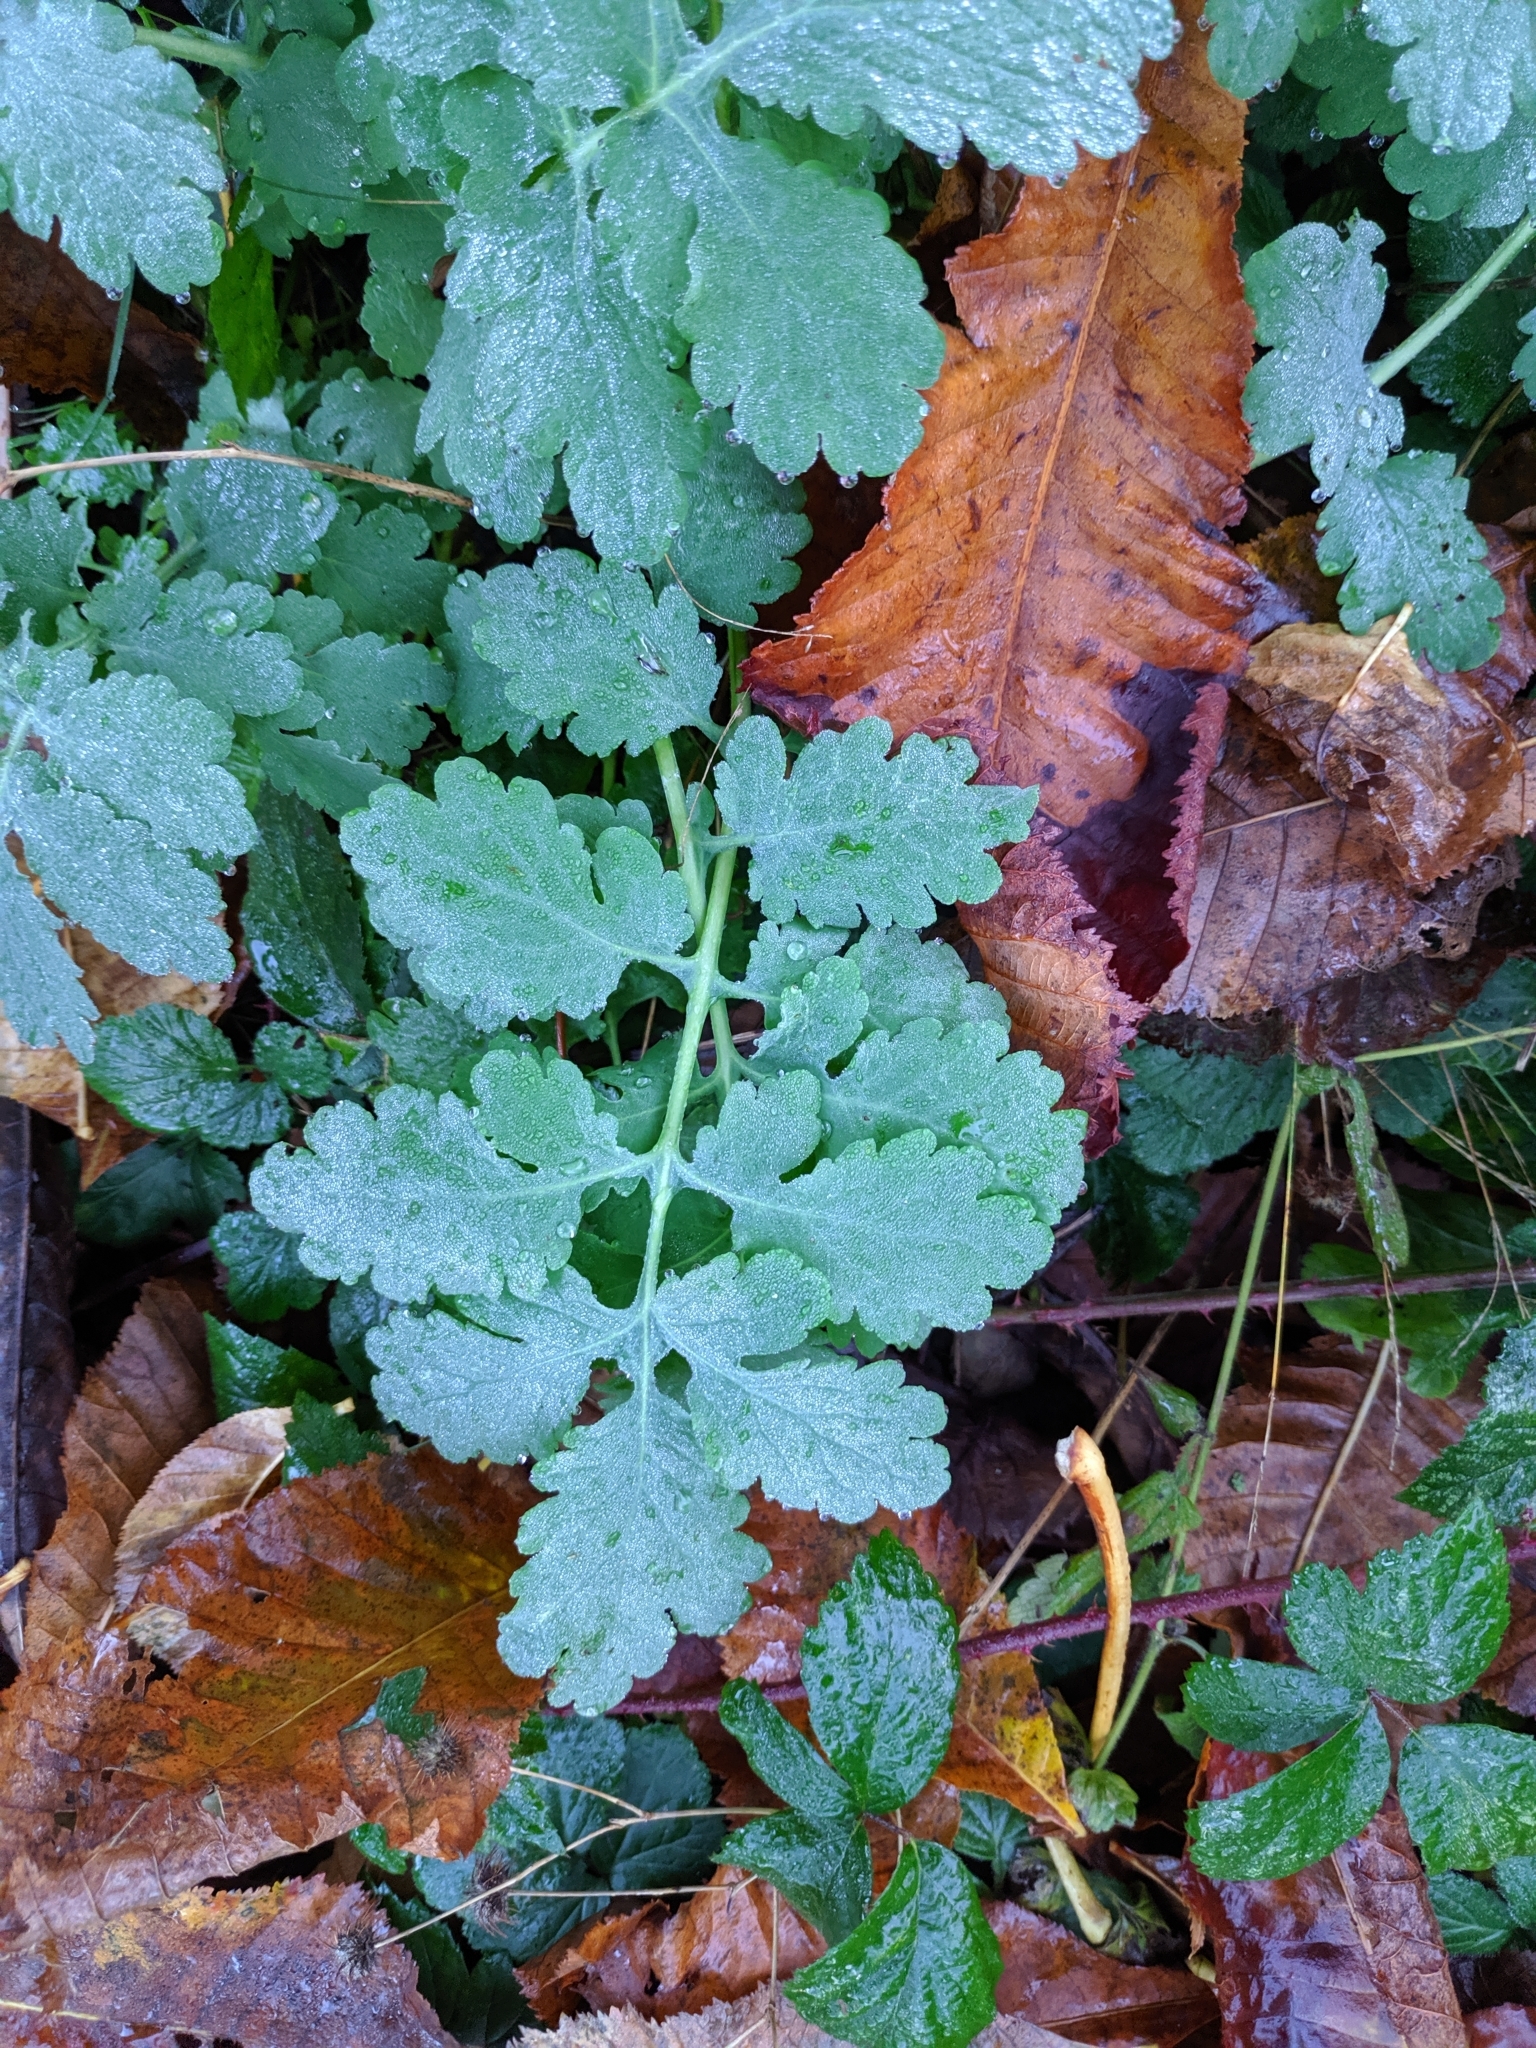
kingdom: Plantae
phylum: Tracheophyta
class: Magnoliopsida
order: Ranunculales
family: Papaveraceae
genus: Chelidonium
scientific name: Chelidonium majus
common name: Greater celandine
